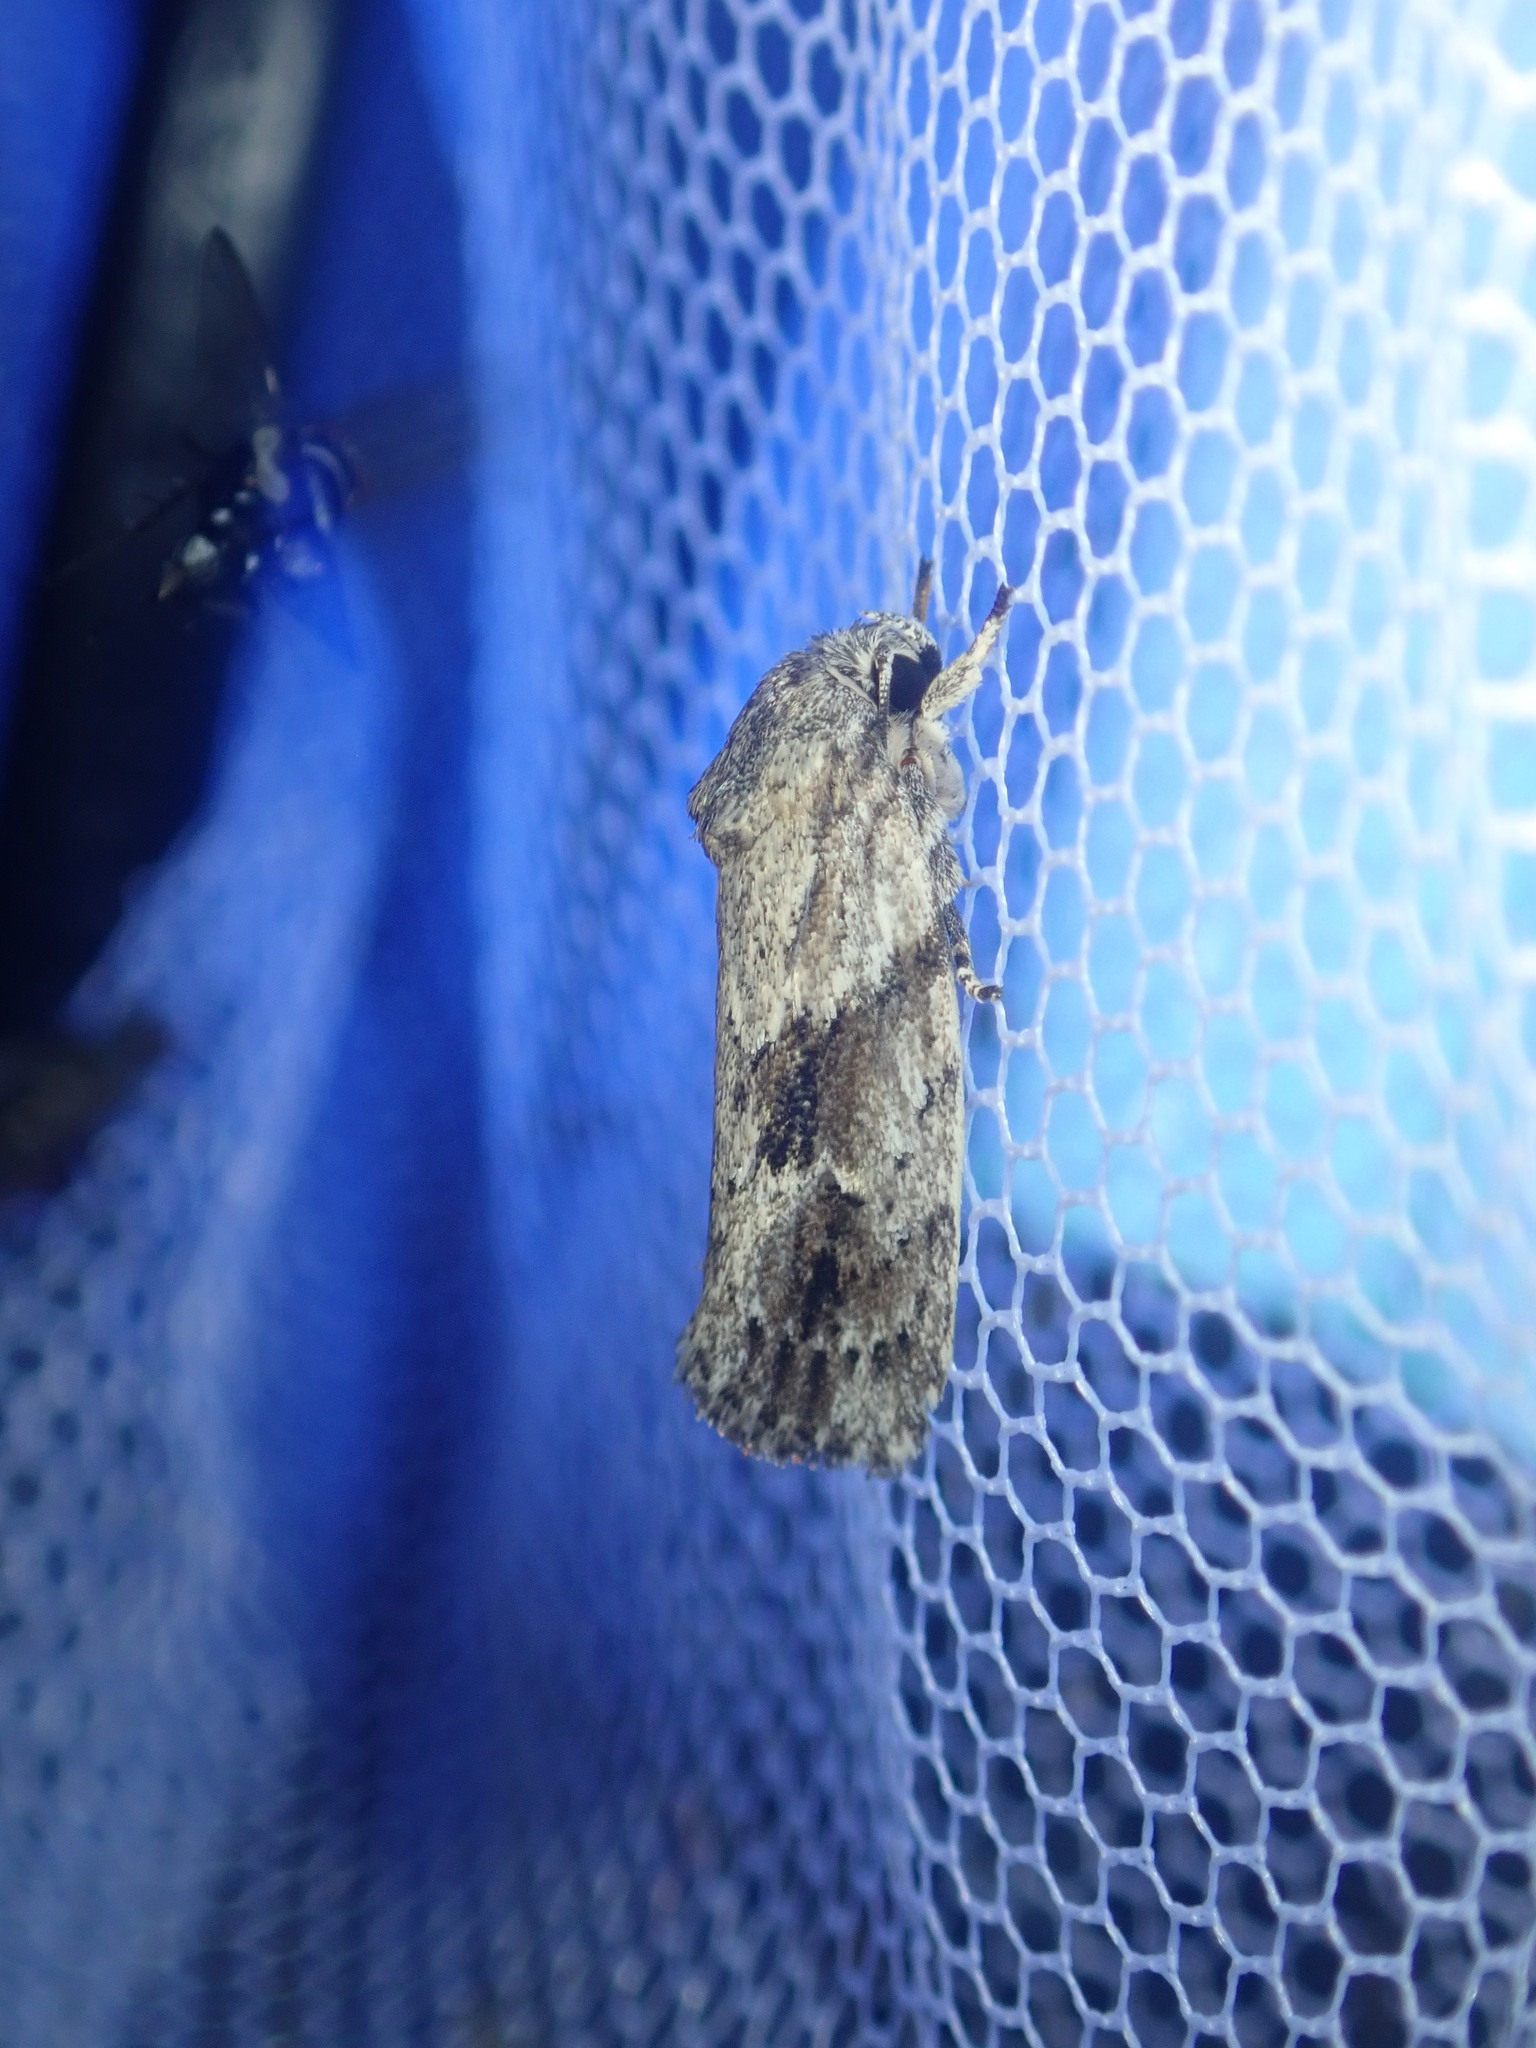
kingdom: Animalia
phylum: Arthropoda
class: Insecta
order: Lepidoptera
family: Depressariidae
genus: Agriophara
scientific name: Agriophara confertella
